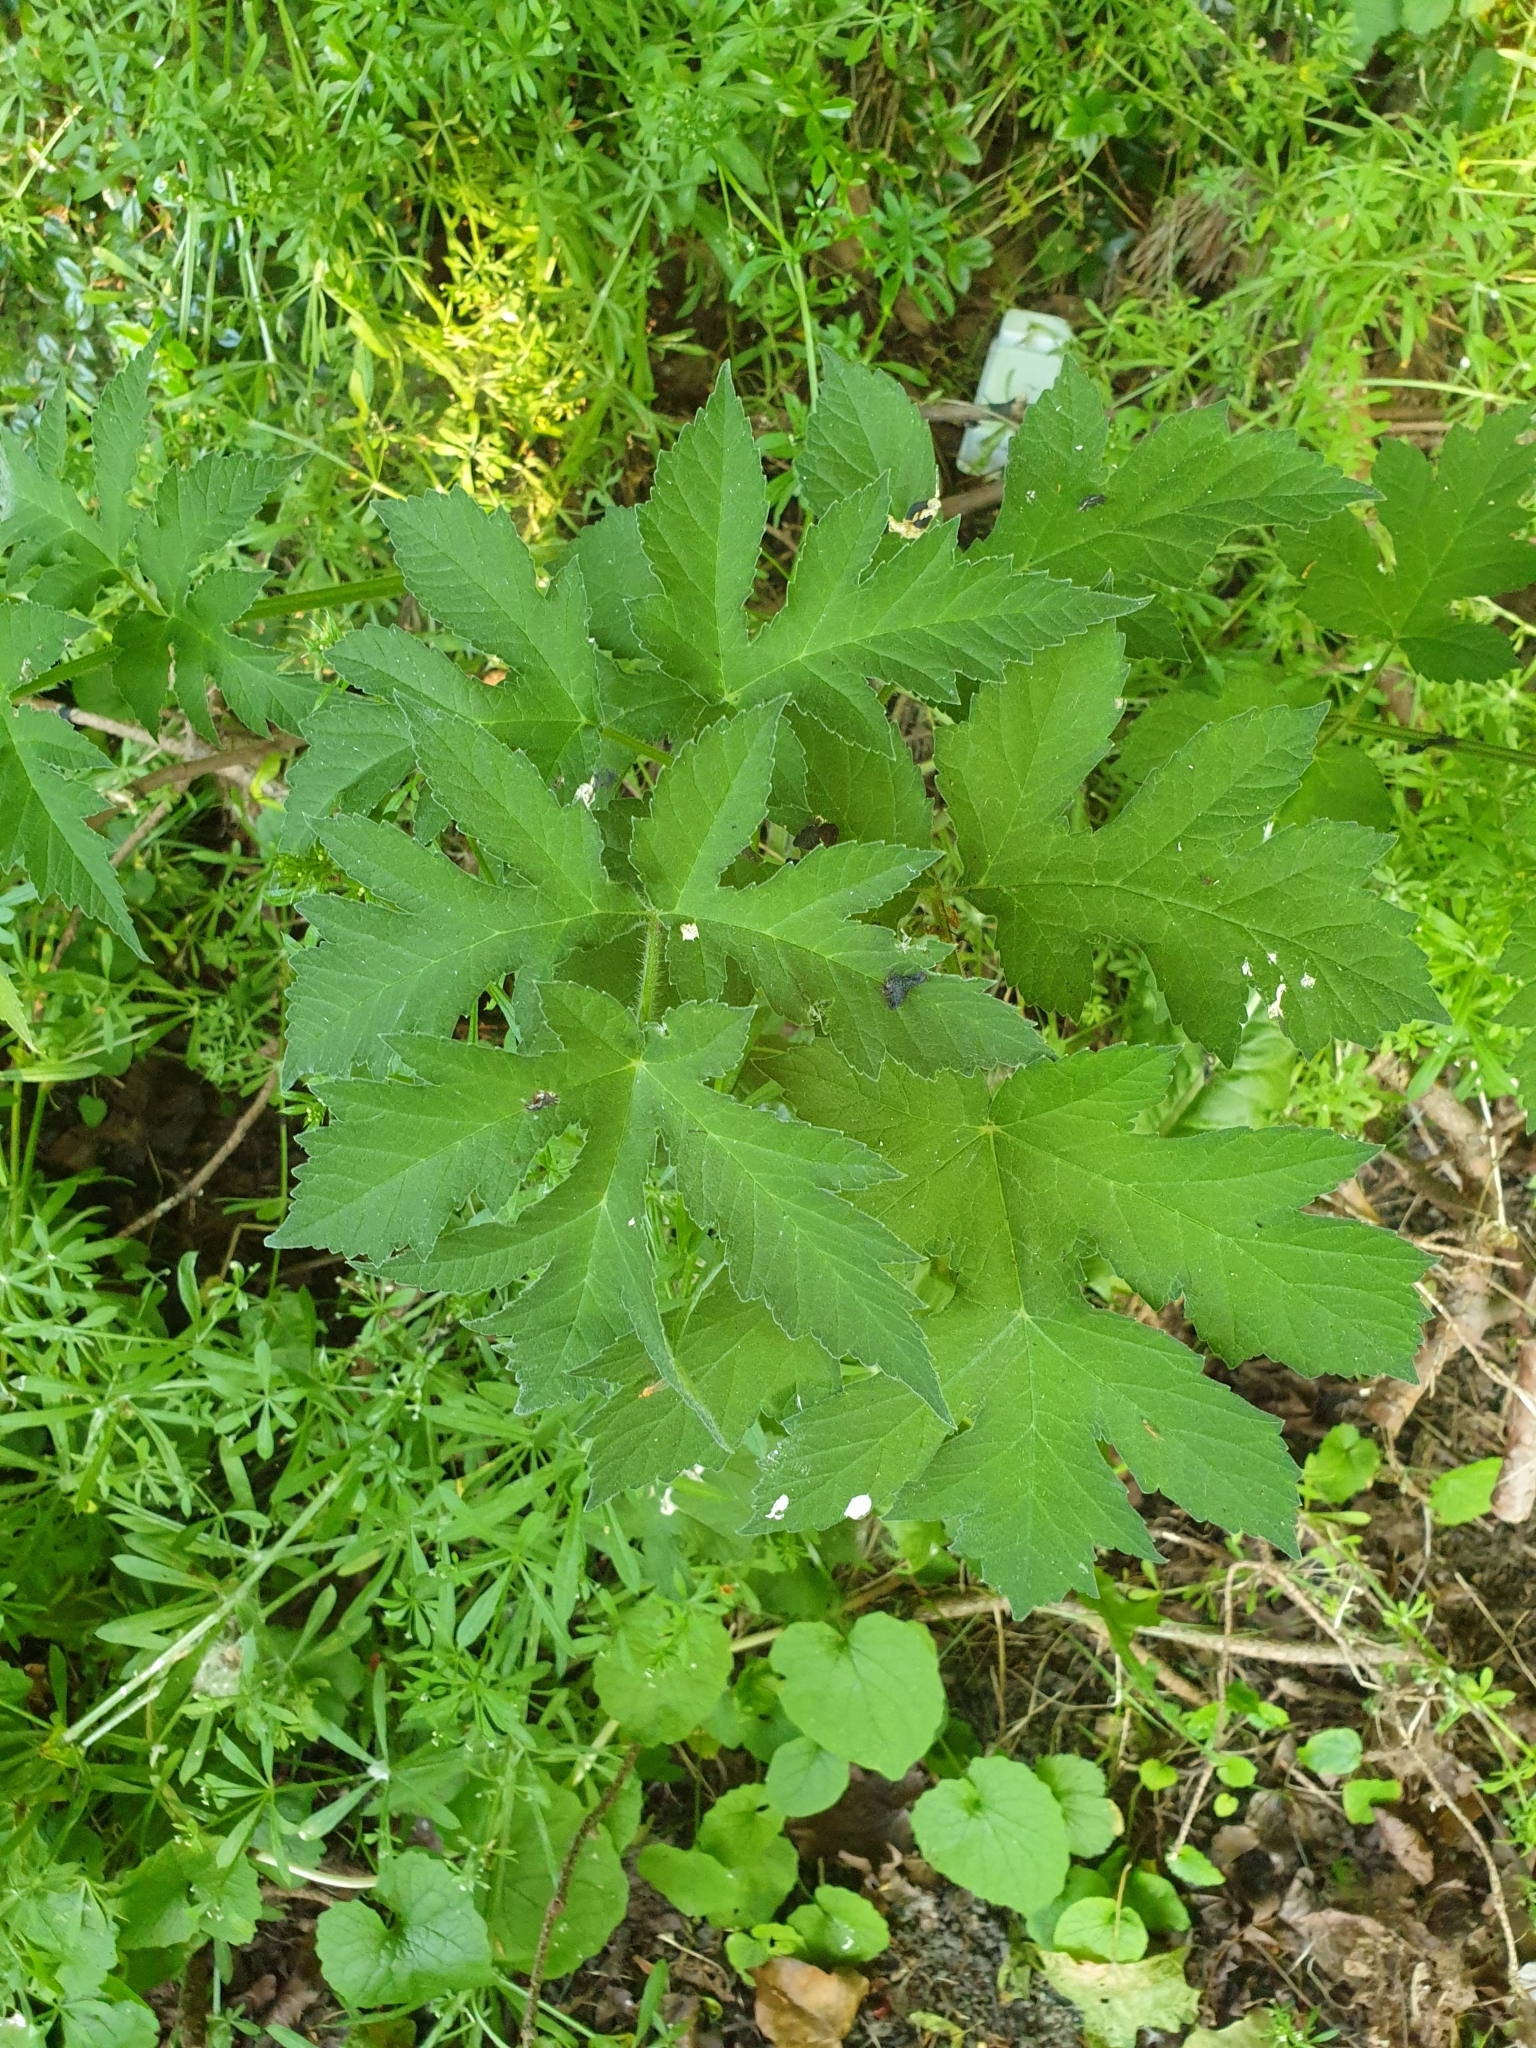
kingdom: Plantae
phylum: Tracheophyta
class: Magnoliopsida
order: Apiales
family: Apiaceae
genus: Heracleum
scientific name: Heracleum sphondylium
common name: Hogweed
